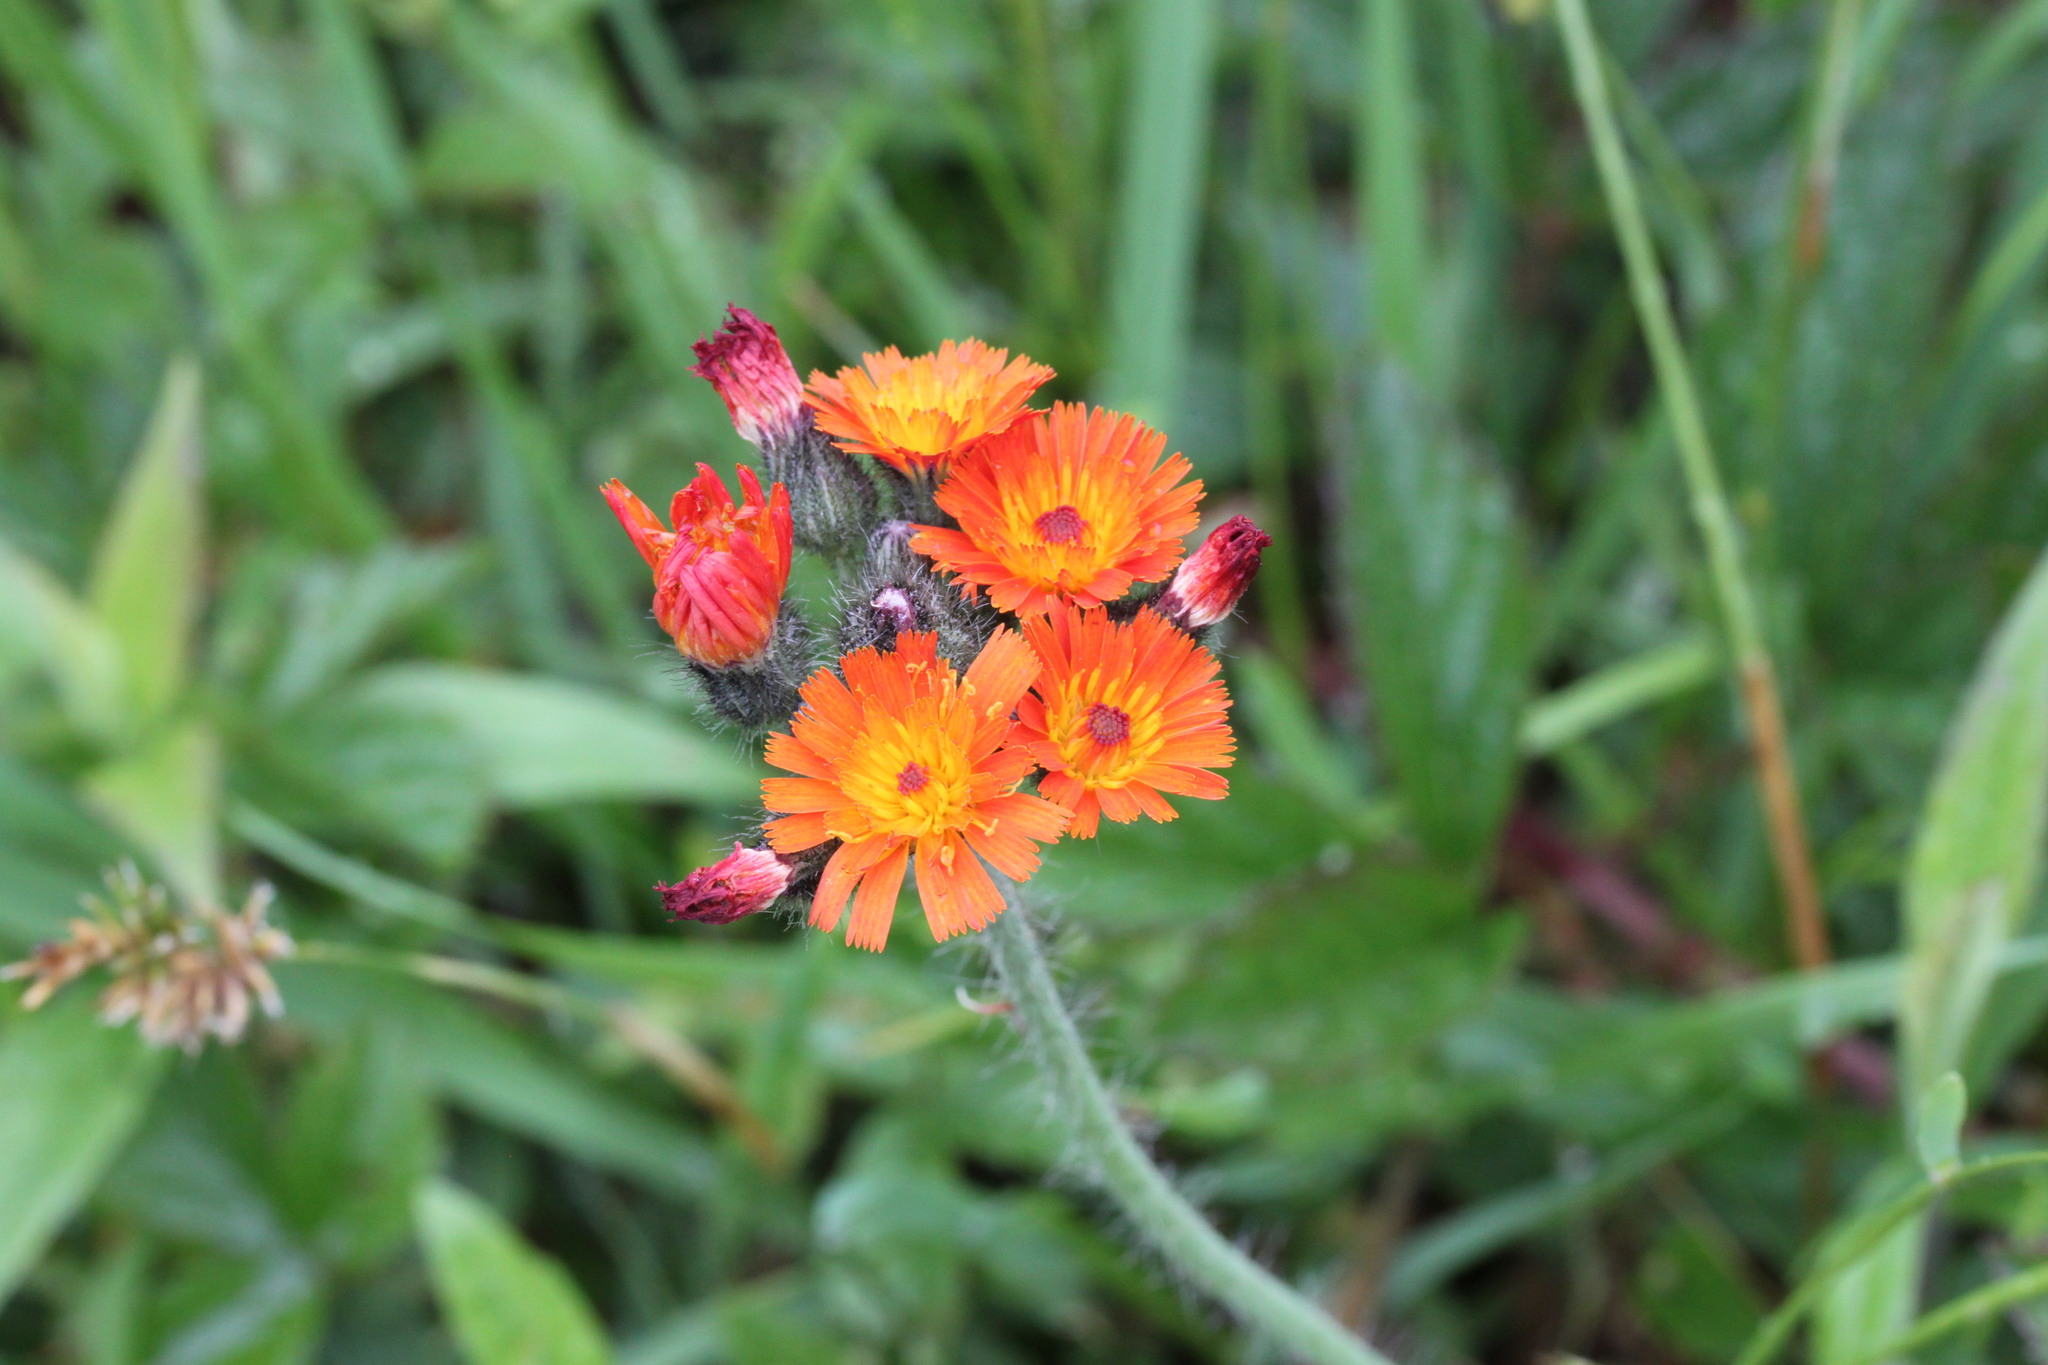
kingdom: Plantae
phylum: Tracheophyta
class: Magnoliopsida
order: Asterales
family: Asteraceae
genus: Pilosella
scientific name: Pilosella aurantiaca
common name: Fox-and-cubs
